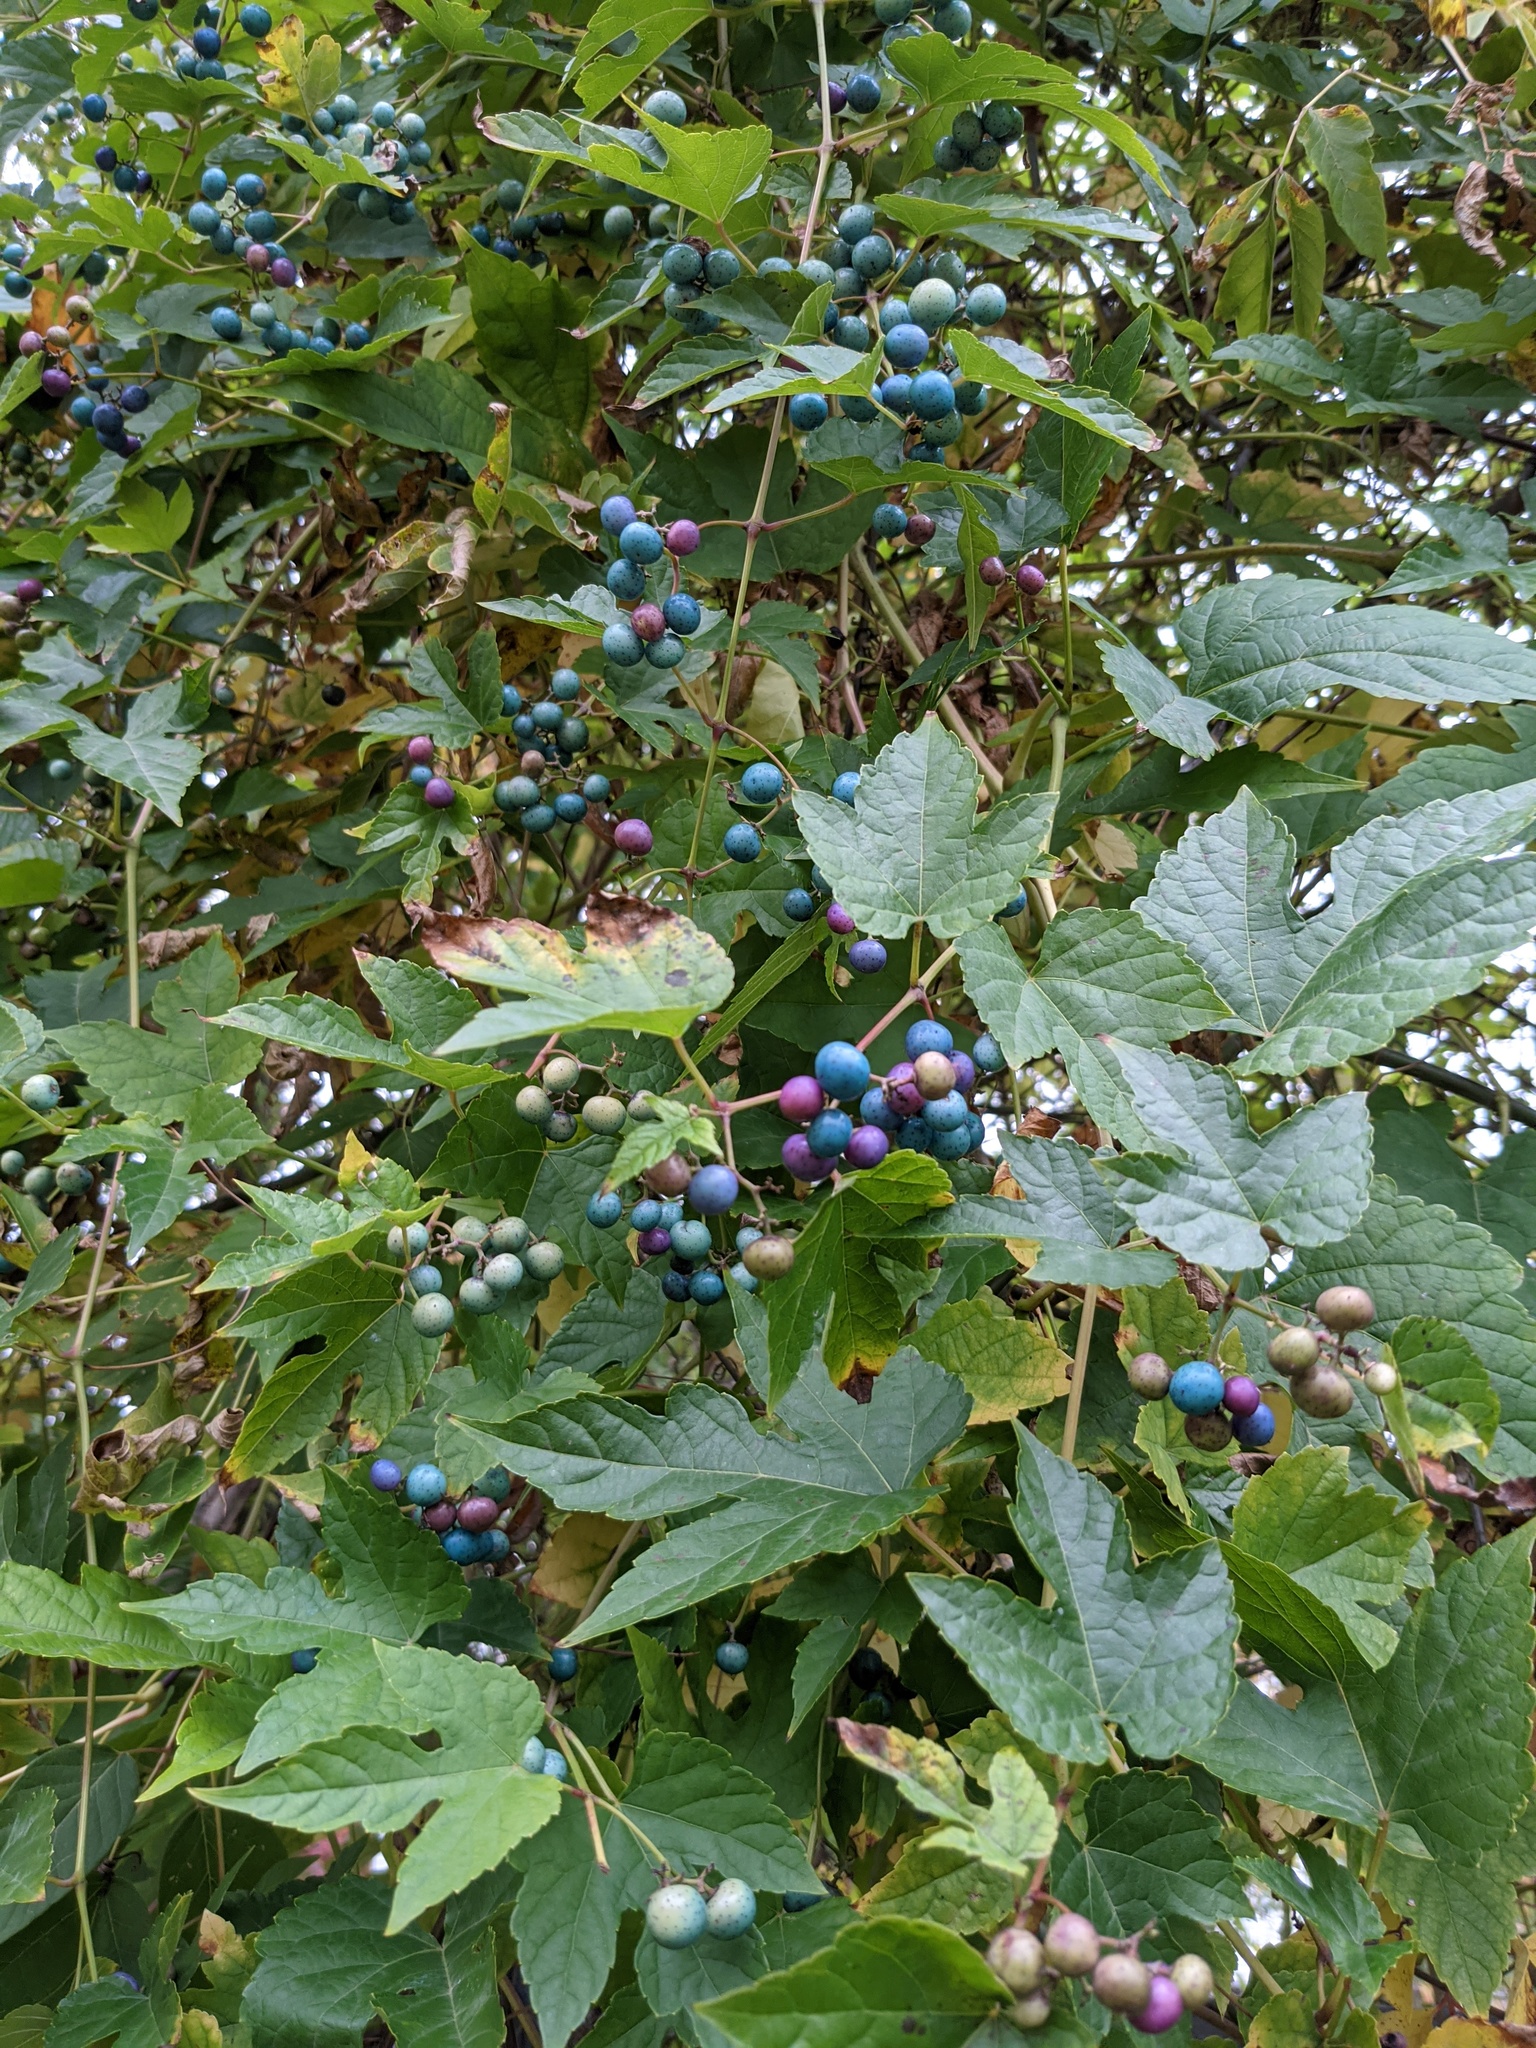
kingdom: Plantae
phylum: Tracheophyta
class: Magnoliopsida
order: Vitales
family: Vitaceae
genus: Ampelopsis
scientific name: Ampelopsis glandulosa
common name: Amur peppervine
